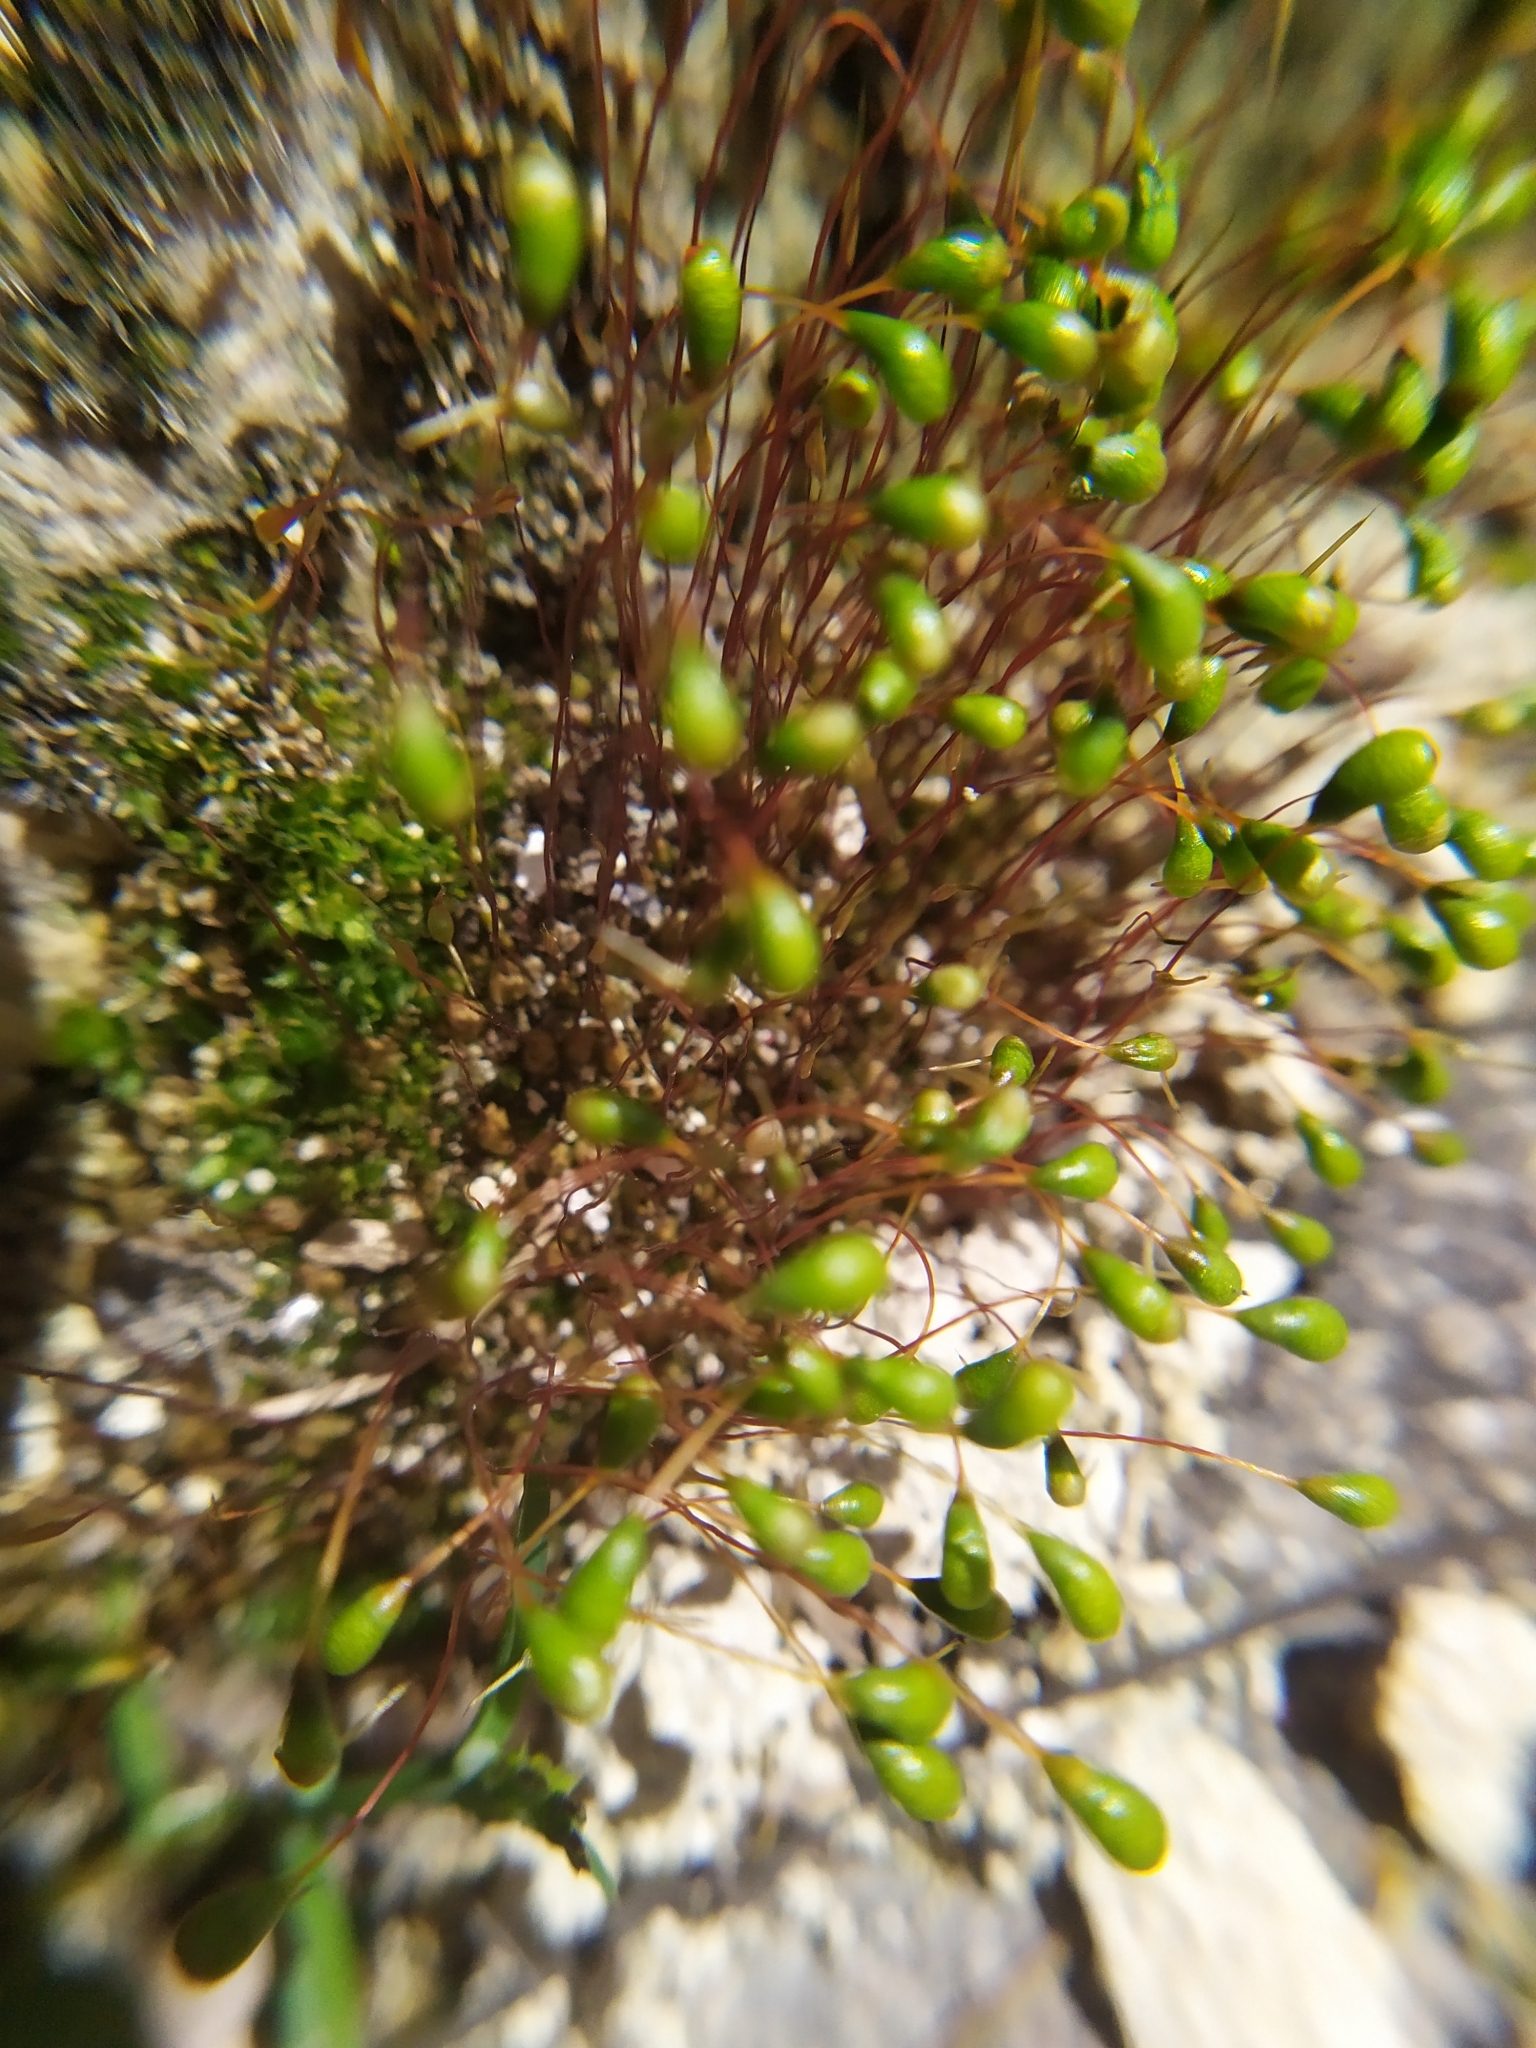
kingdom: Plantae
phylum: Bryophyta
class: Bryopsida
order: Funariales
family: Funariaceae
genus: Funaria
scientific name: Funaria hygrometrica
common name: Common cord moss
